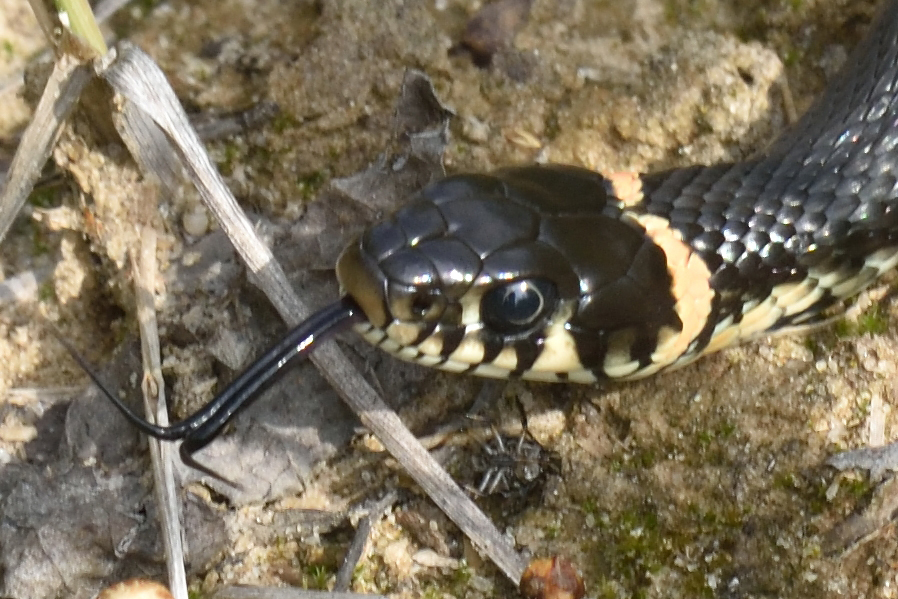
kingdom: Animalia
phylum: Chordata
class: Squamata
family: Colubridae
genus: Natrix
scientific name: Natrix natrix
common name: Grass snake
